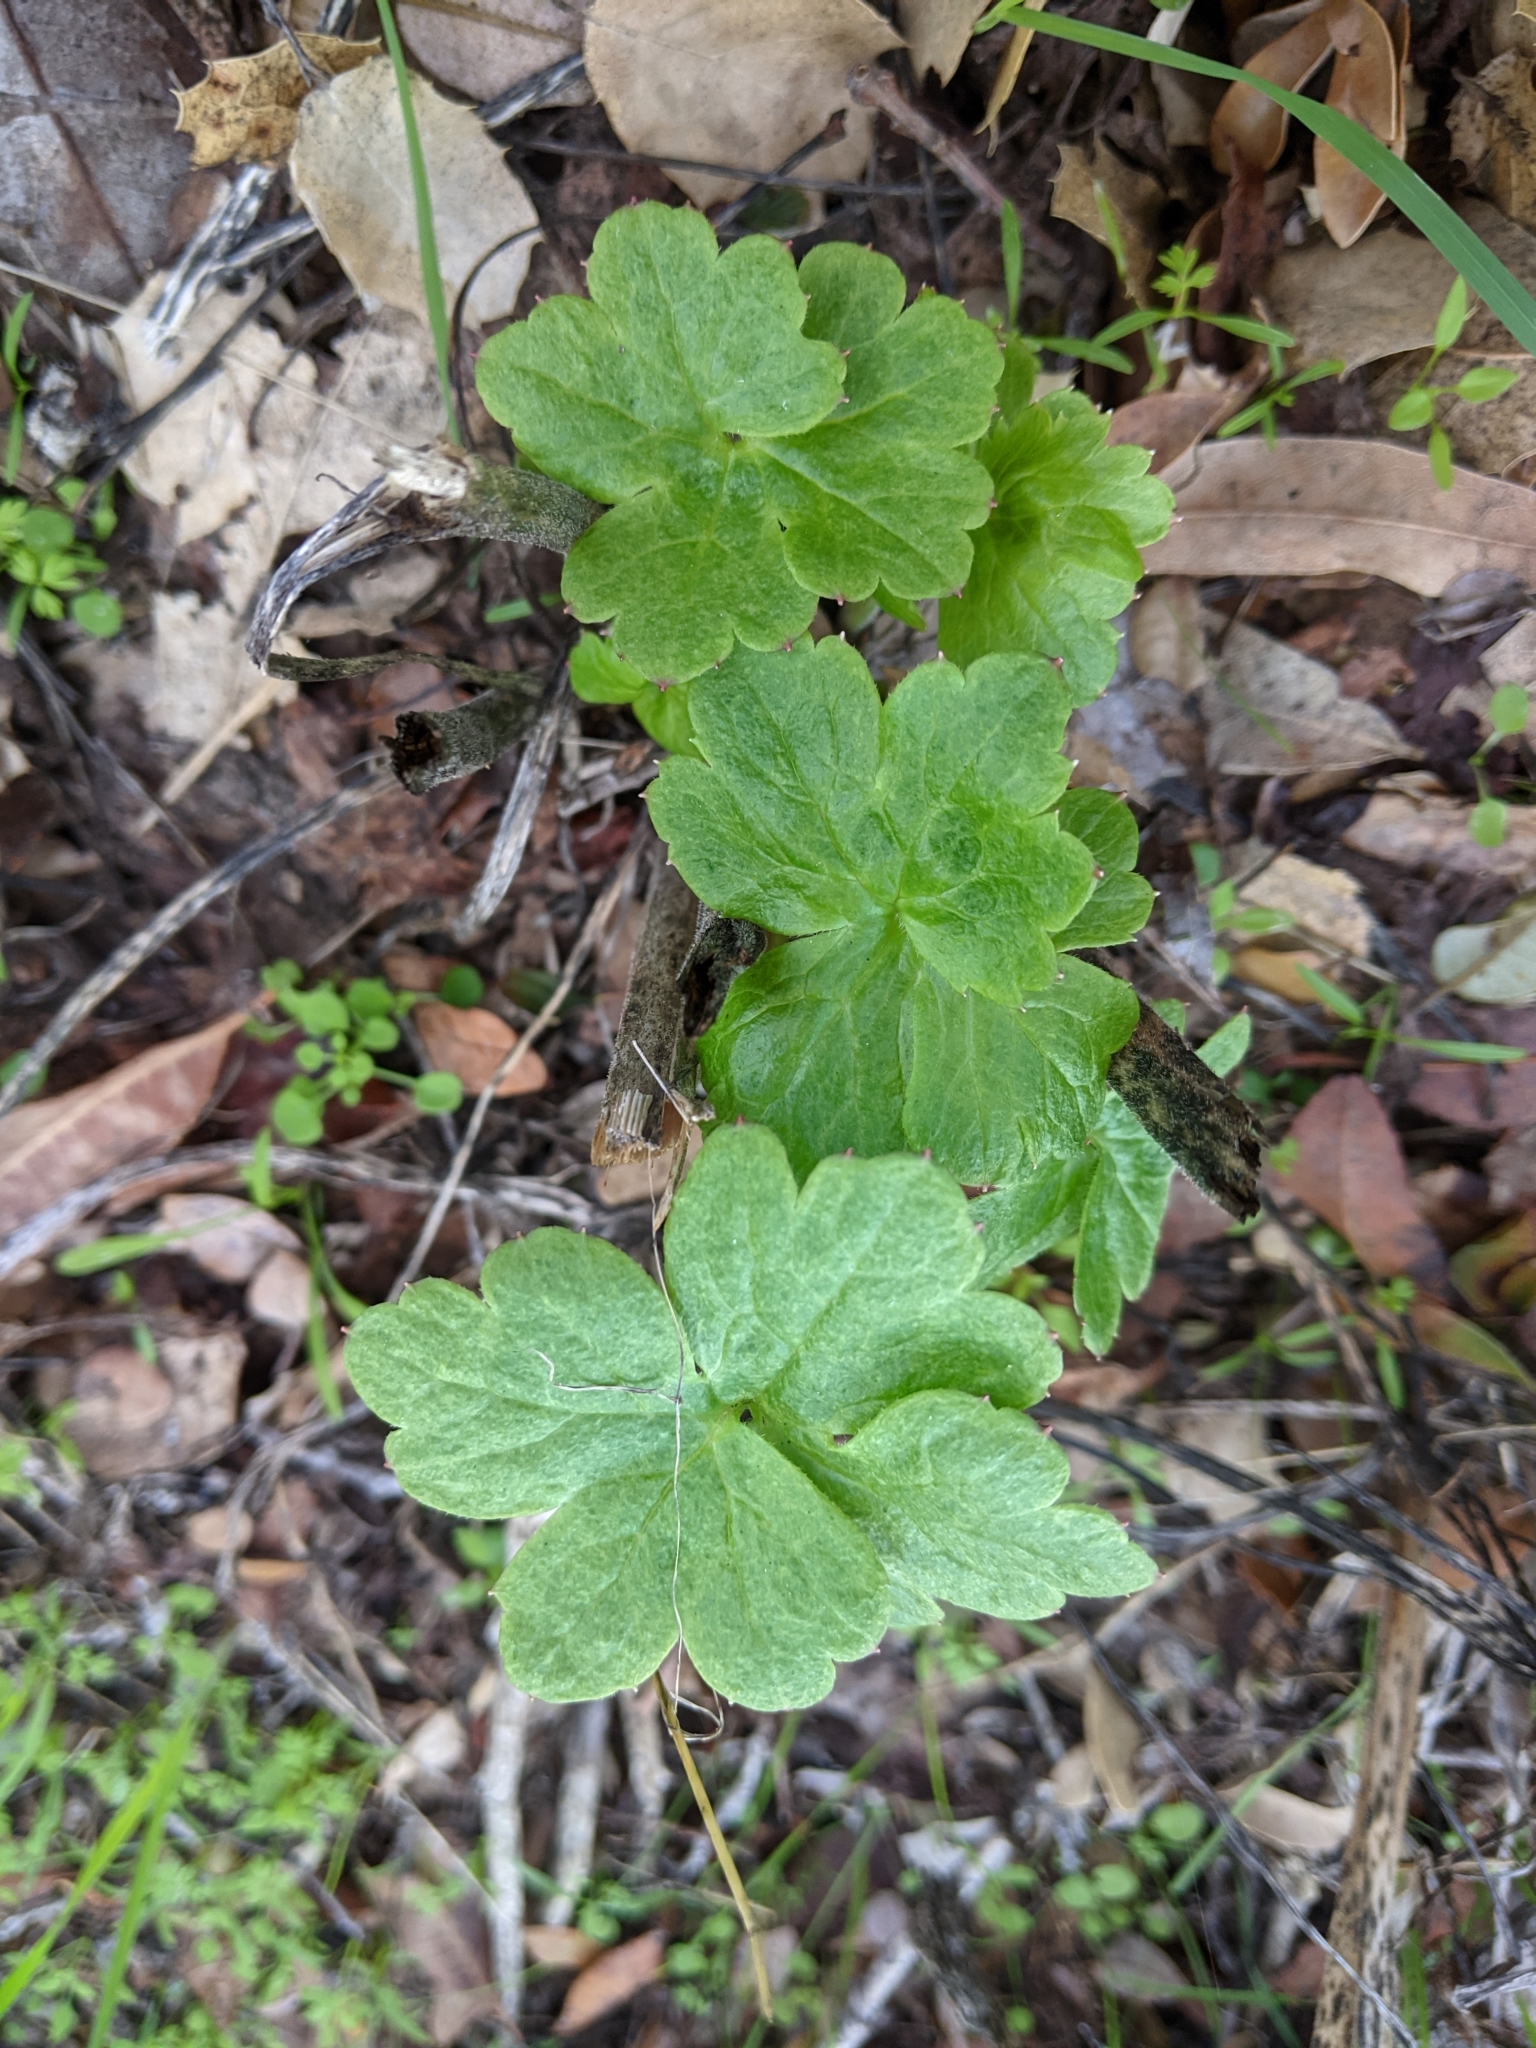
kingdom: Plantae
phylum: Tracheophyta
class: Magnoliopsida
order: Ranunculales
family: Ranunculaceae
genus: Delphinium
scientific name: Delphinium californicum
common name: California larkspur
